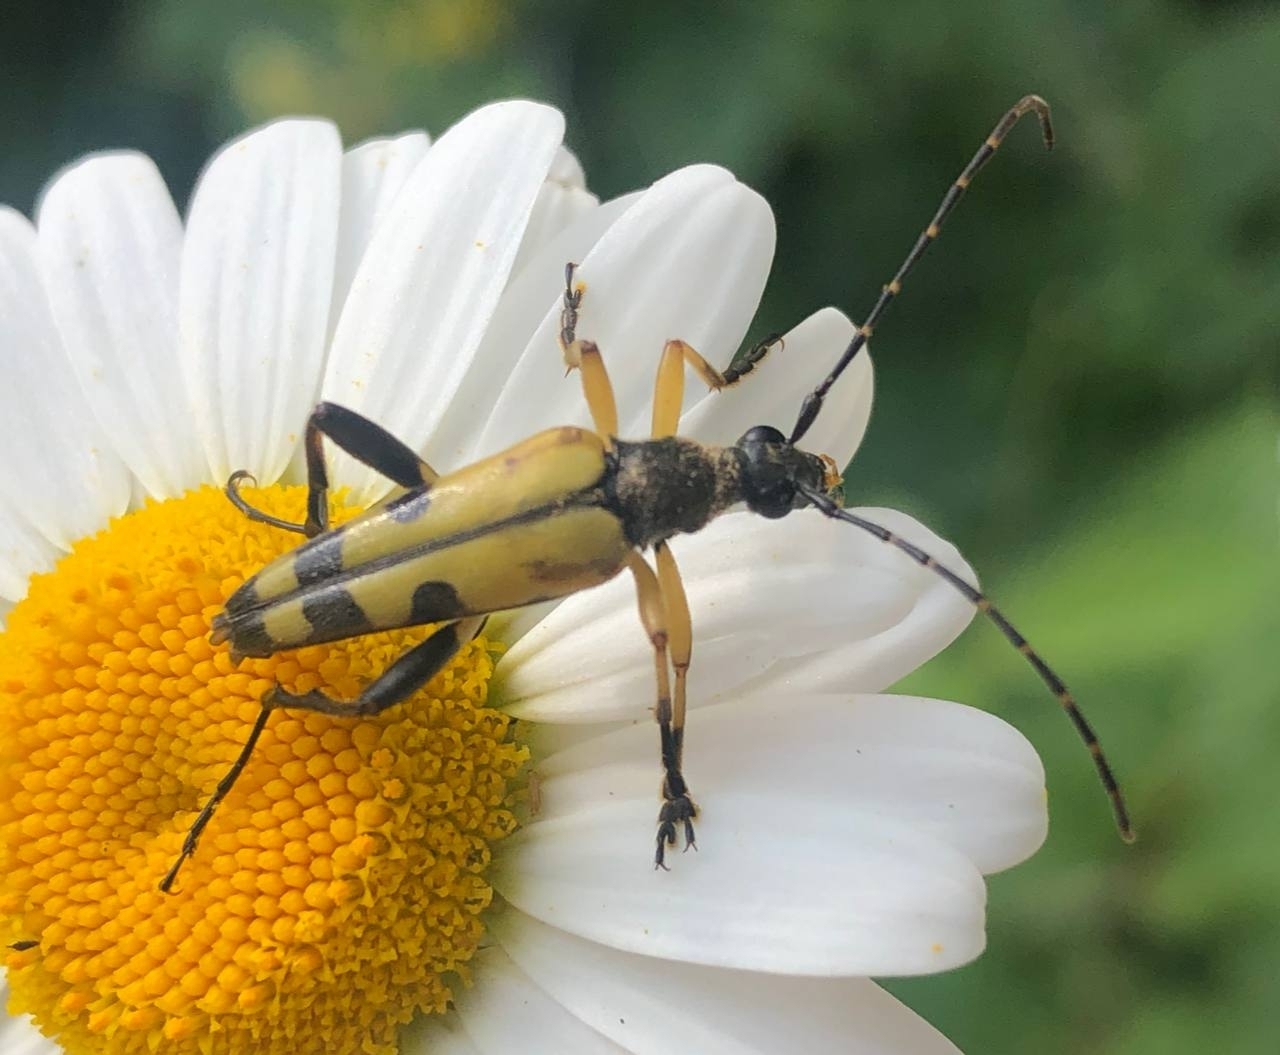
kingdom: Animalia
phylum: Arthropoda
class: Insecta
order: Coleoptera
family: Cerambycidae
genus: Rutpela
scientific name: Rutpela maculata
